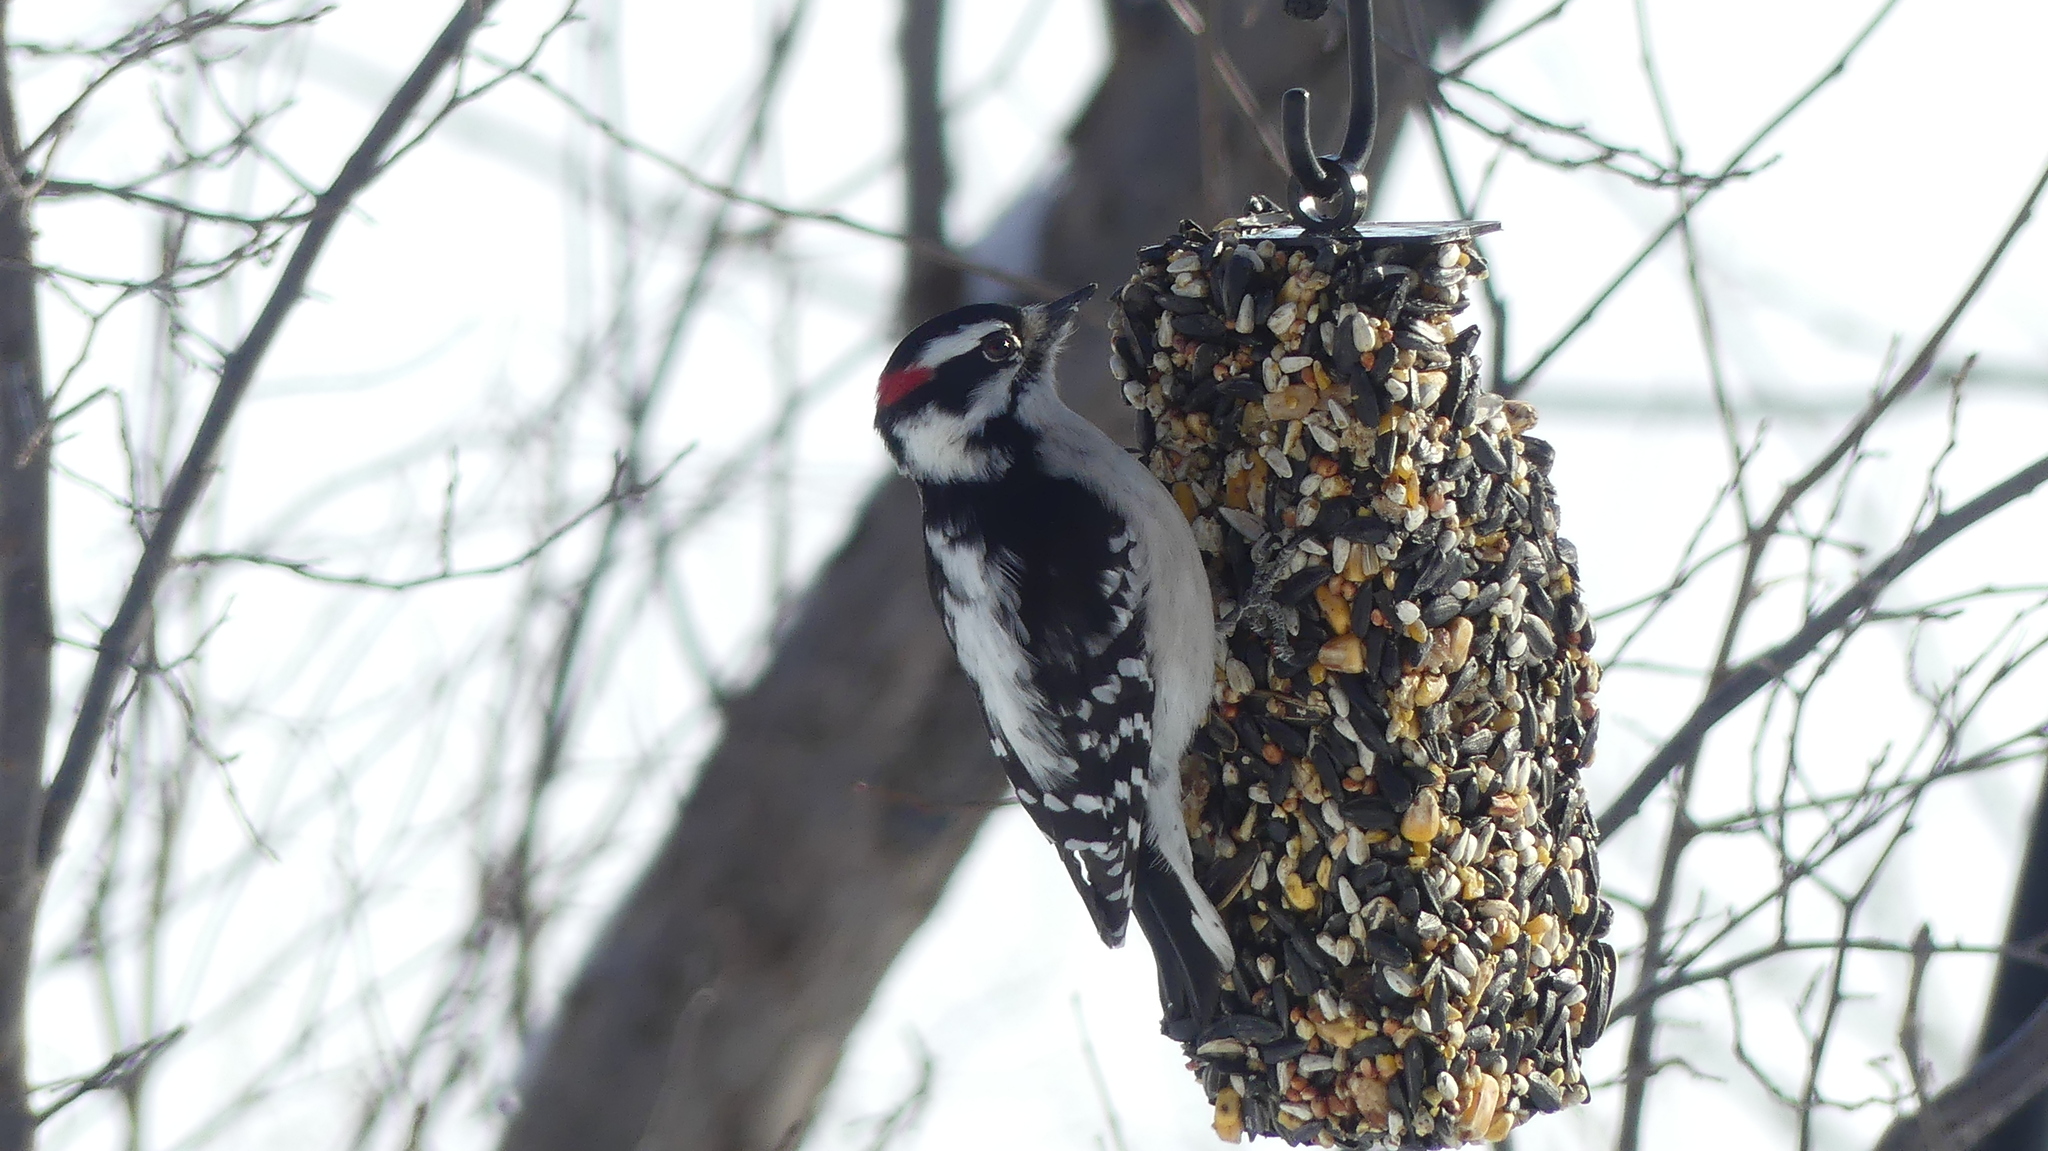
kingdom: Animalia
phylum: Chordata
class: Aves
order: Piciformes
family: Picidae
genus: Dryobates
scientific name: Dryobates pubescens
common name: Downy woodpecker
